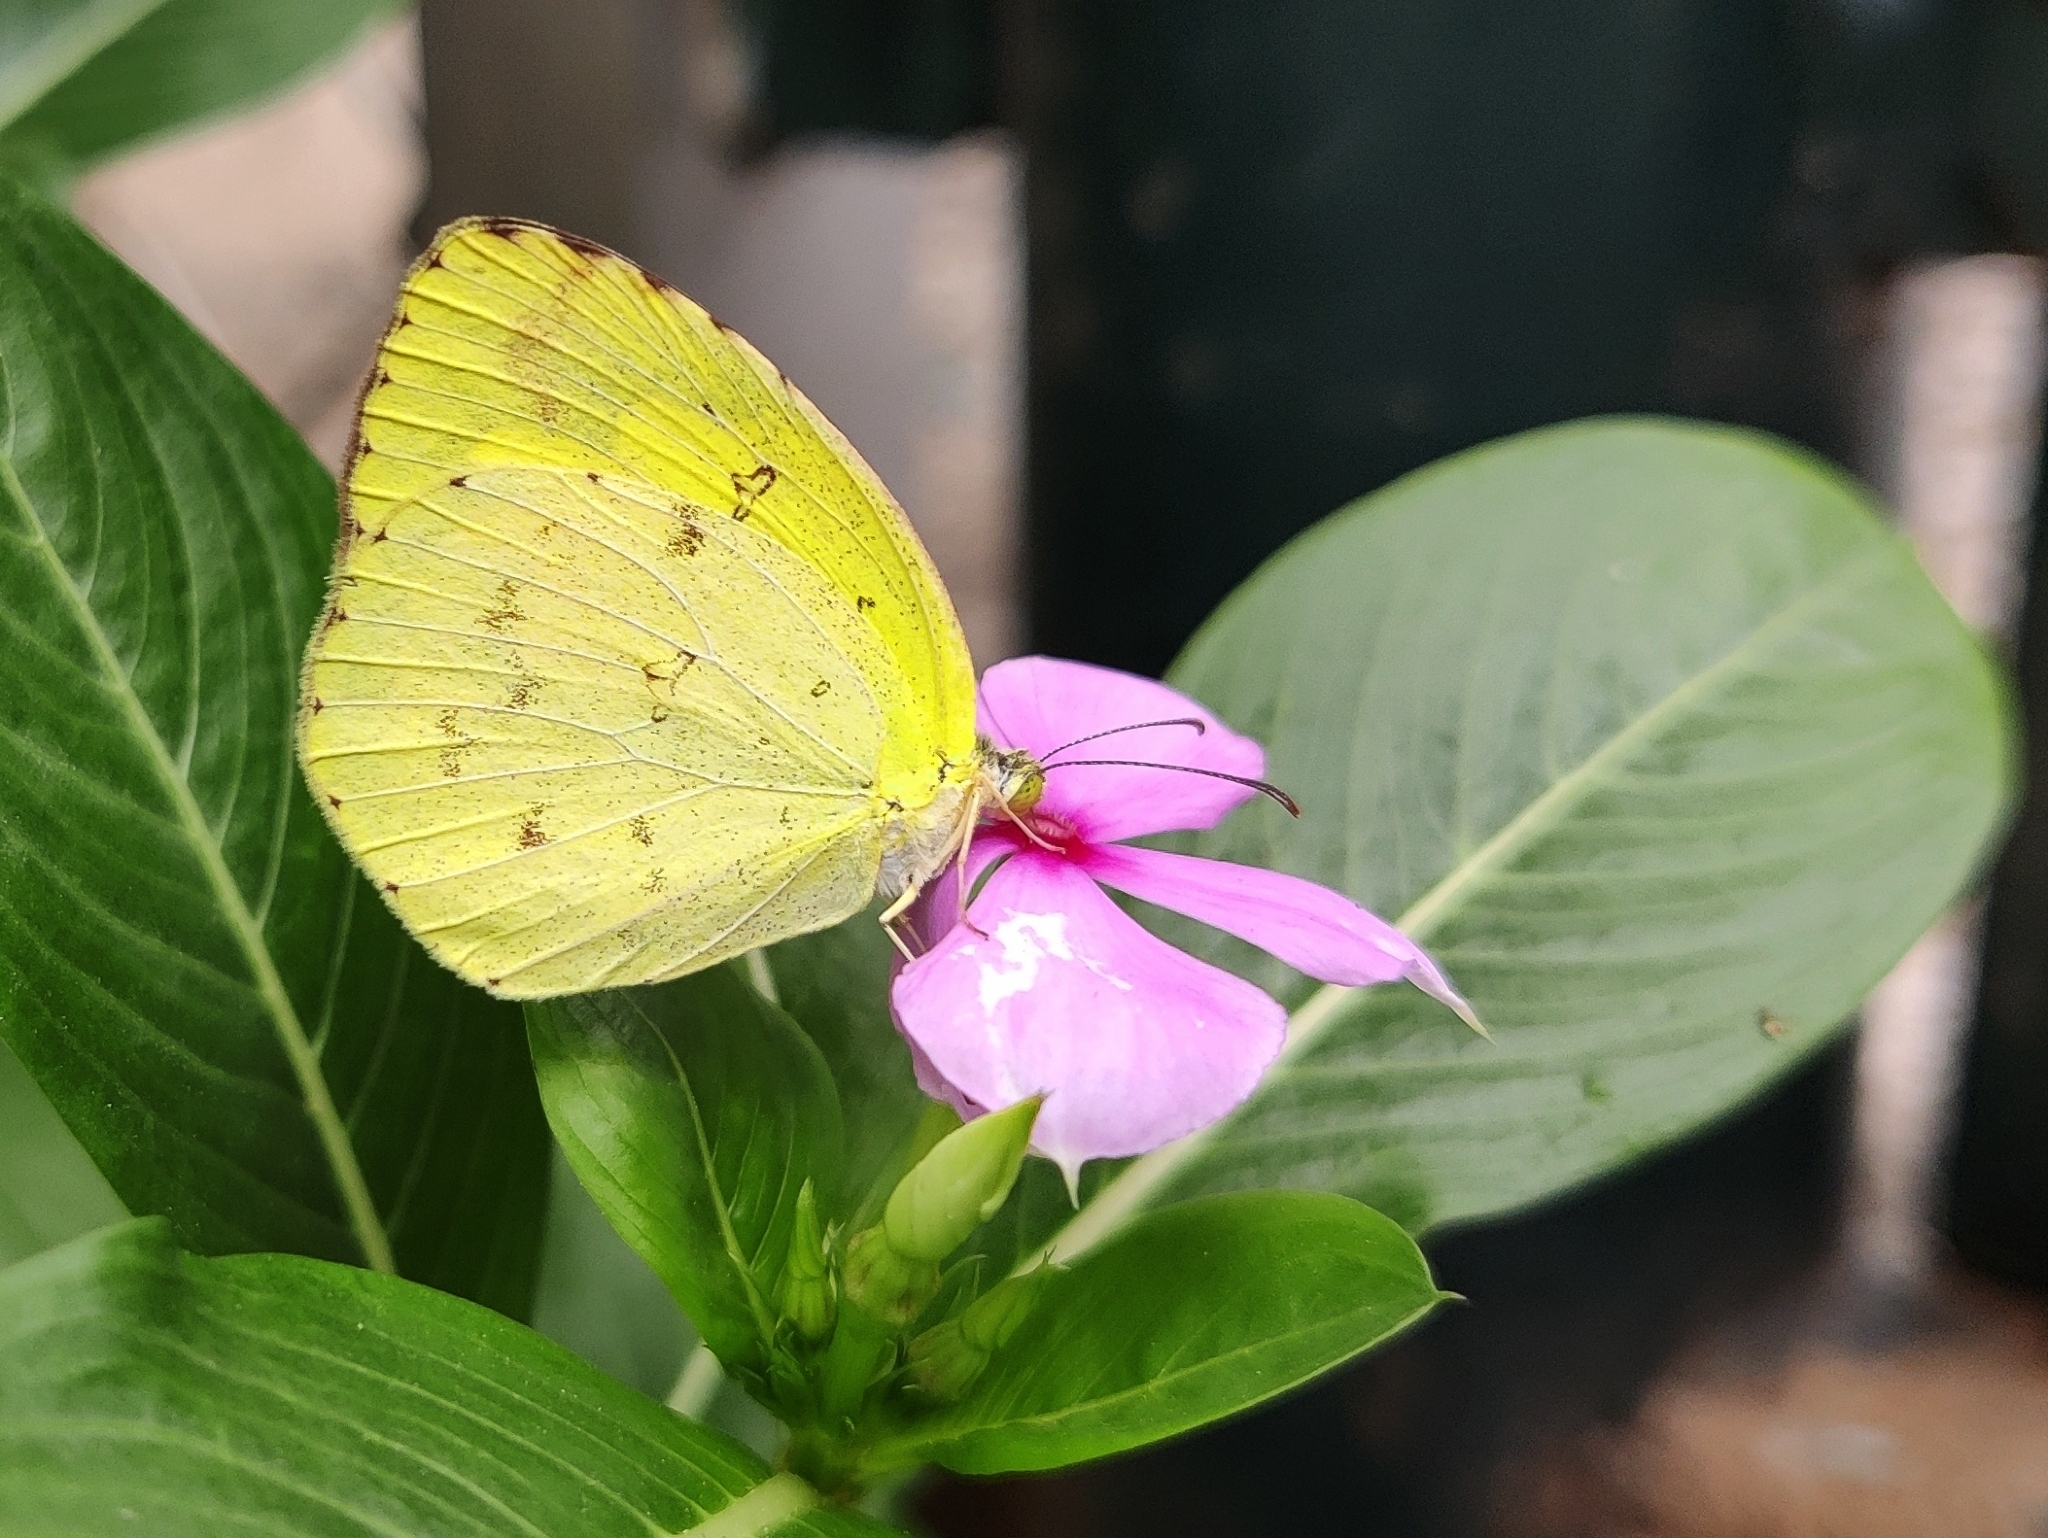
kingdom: Animalia
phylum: Arthropoda
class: Insecta
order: Lepidoptera
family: Pieridae
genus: Eurema
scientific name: Eurema hecabe
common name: Pale grass yellow
